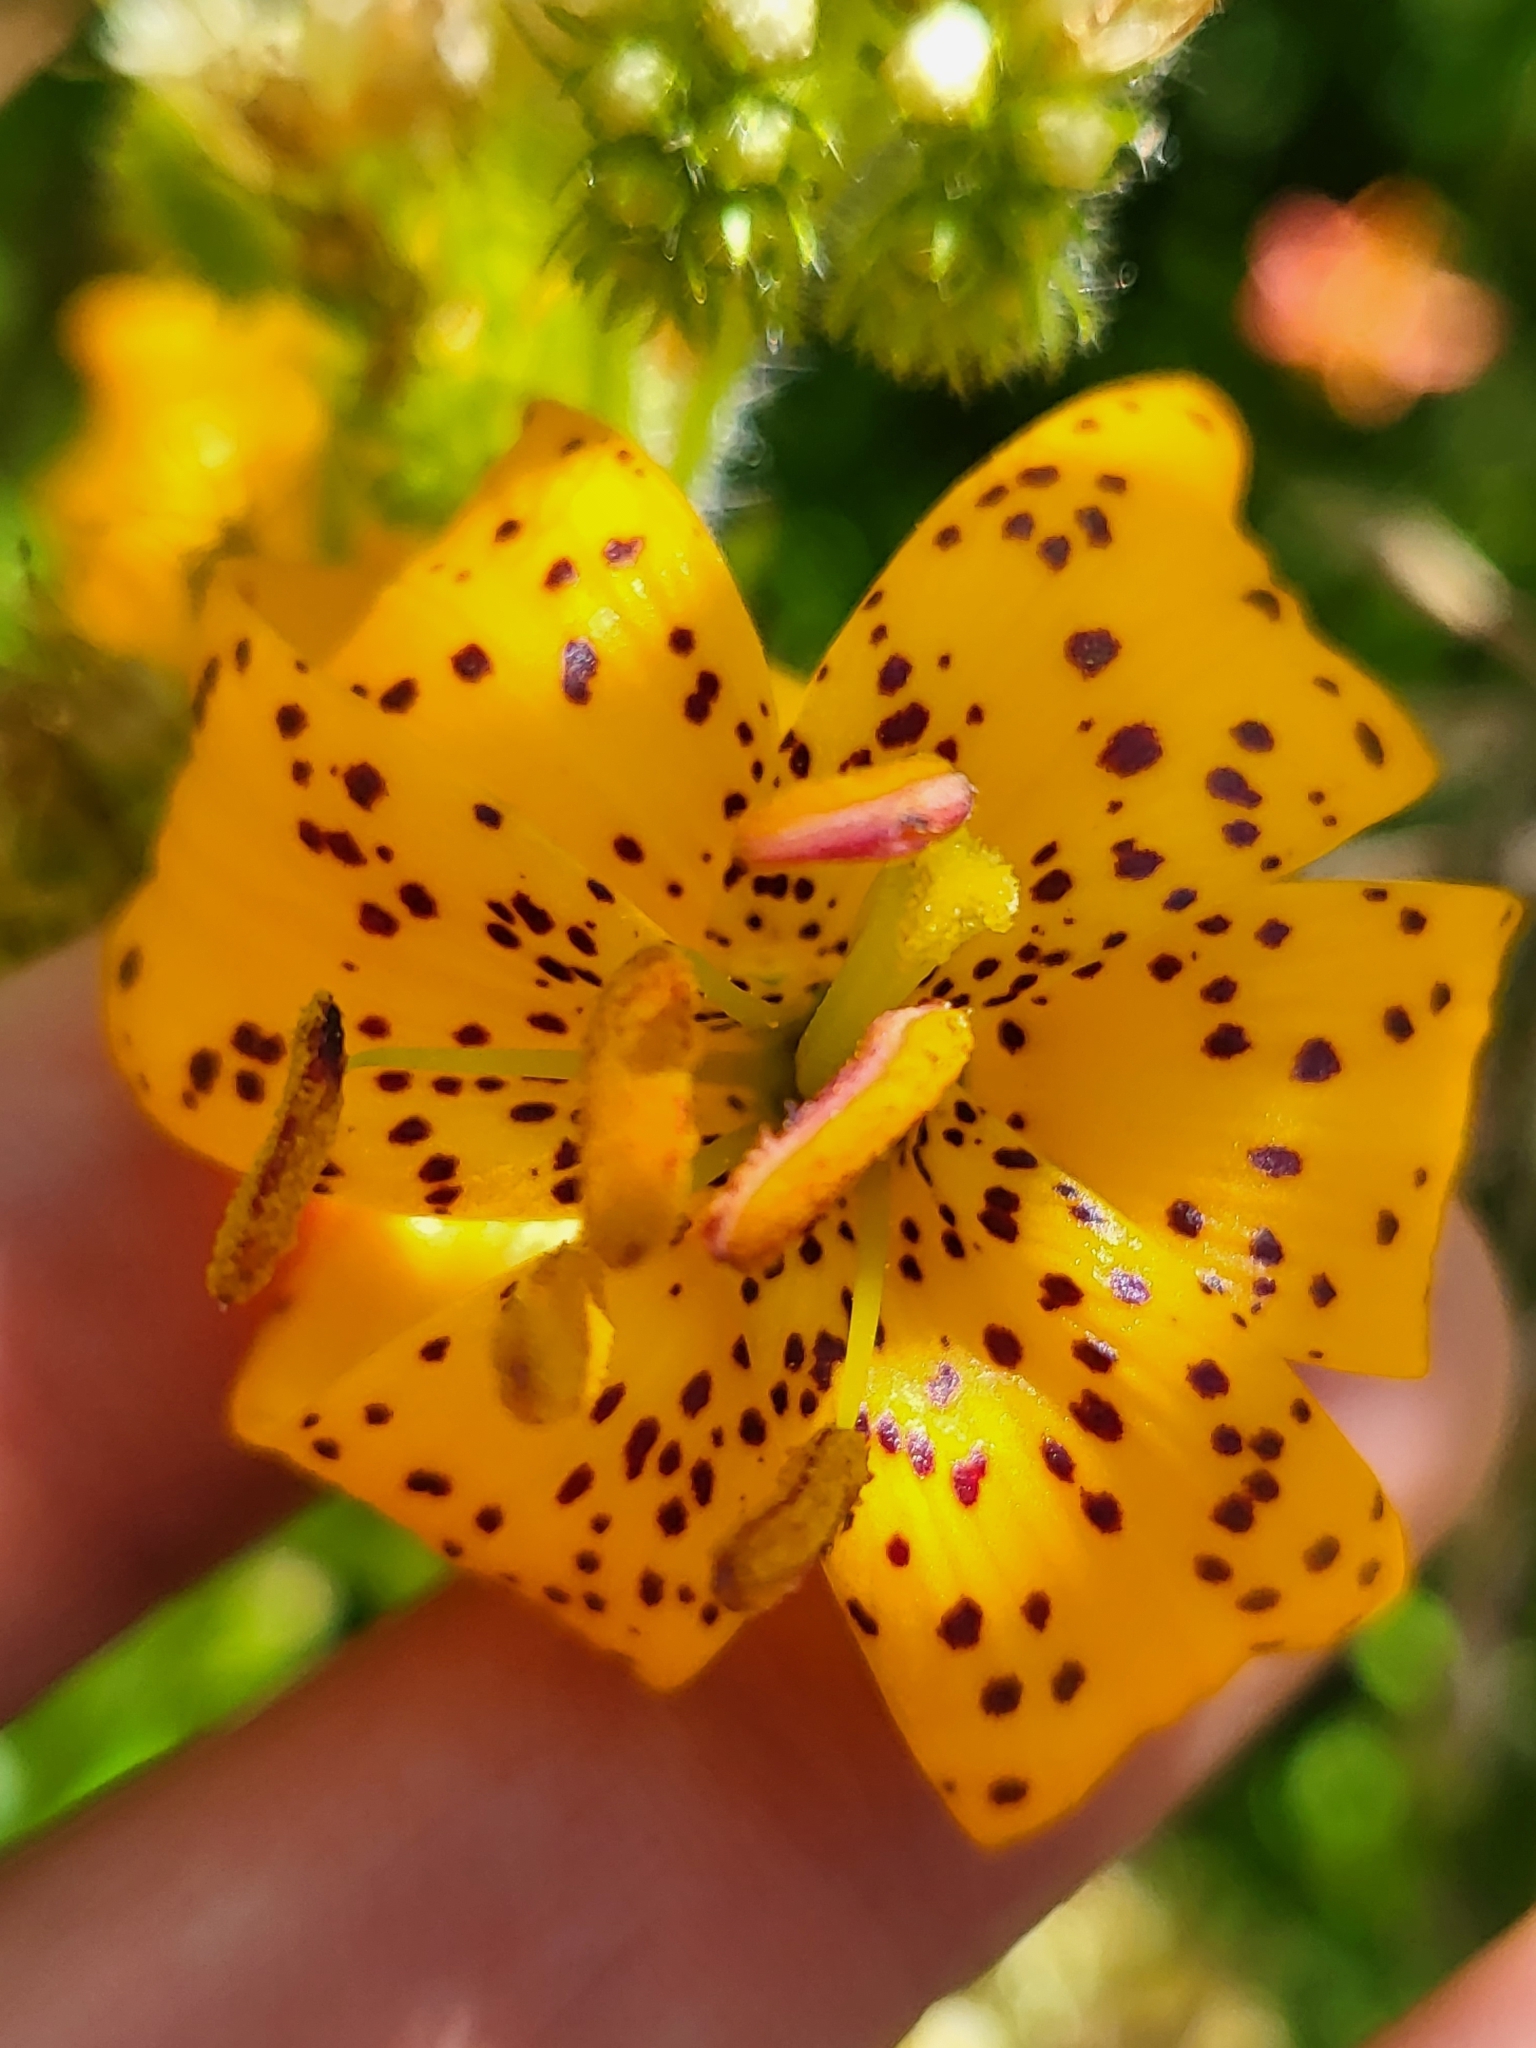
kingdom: Plantae
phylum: Tracheophyta
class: Liliopsida
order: Liliales
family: Liliaceae
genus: Lilium
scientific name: Lilium kelleyanum
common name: Kelley's lily
